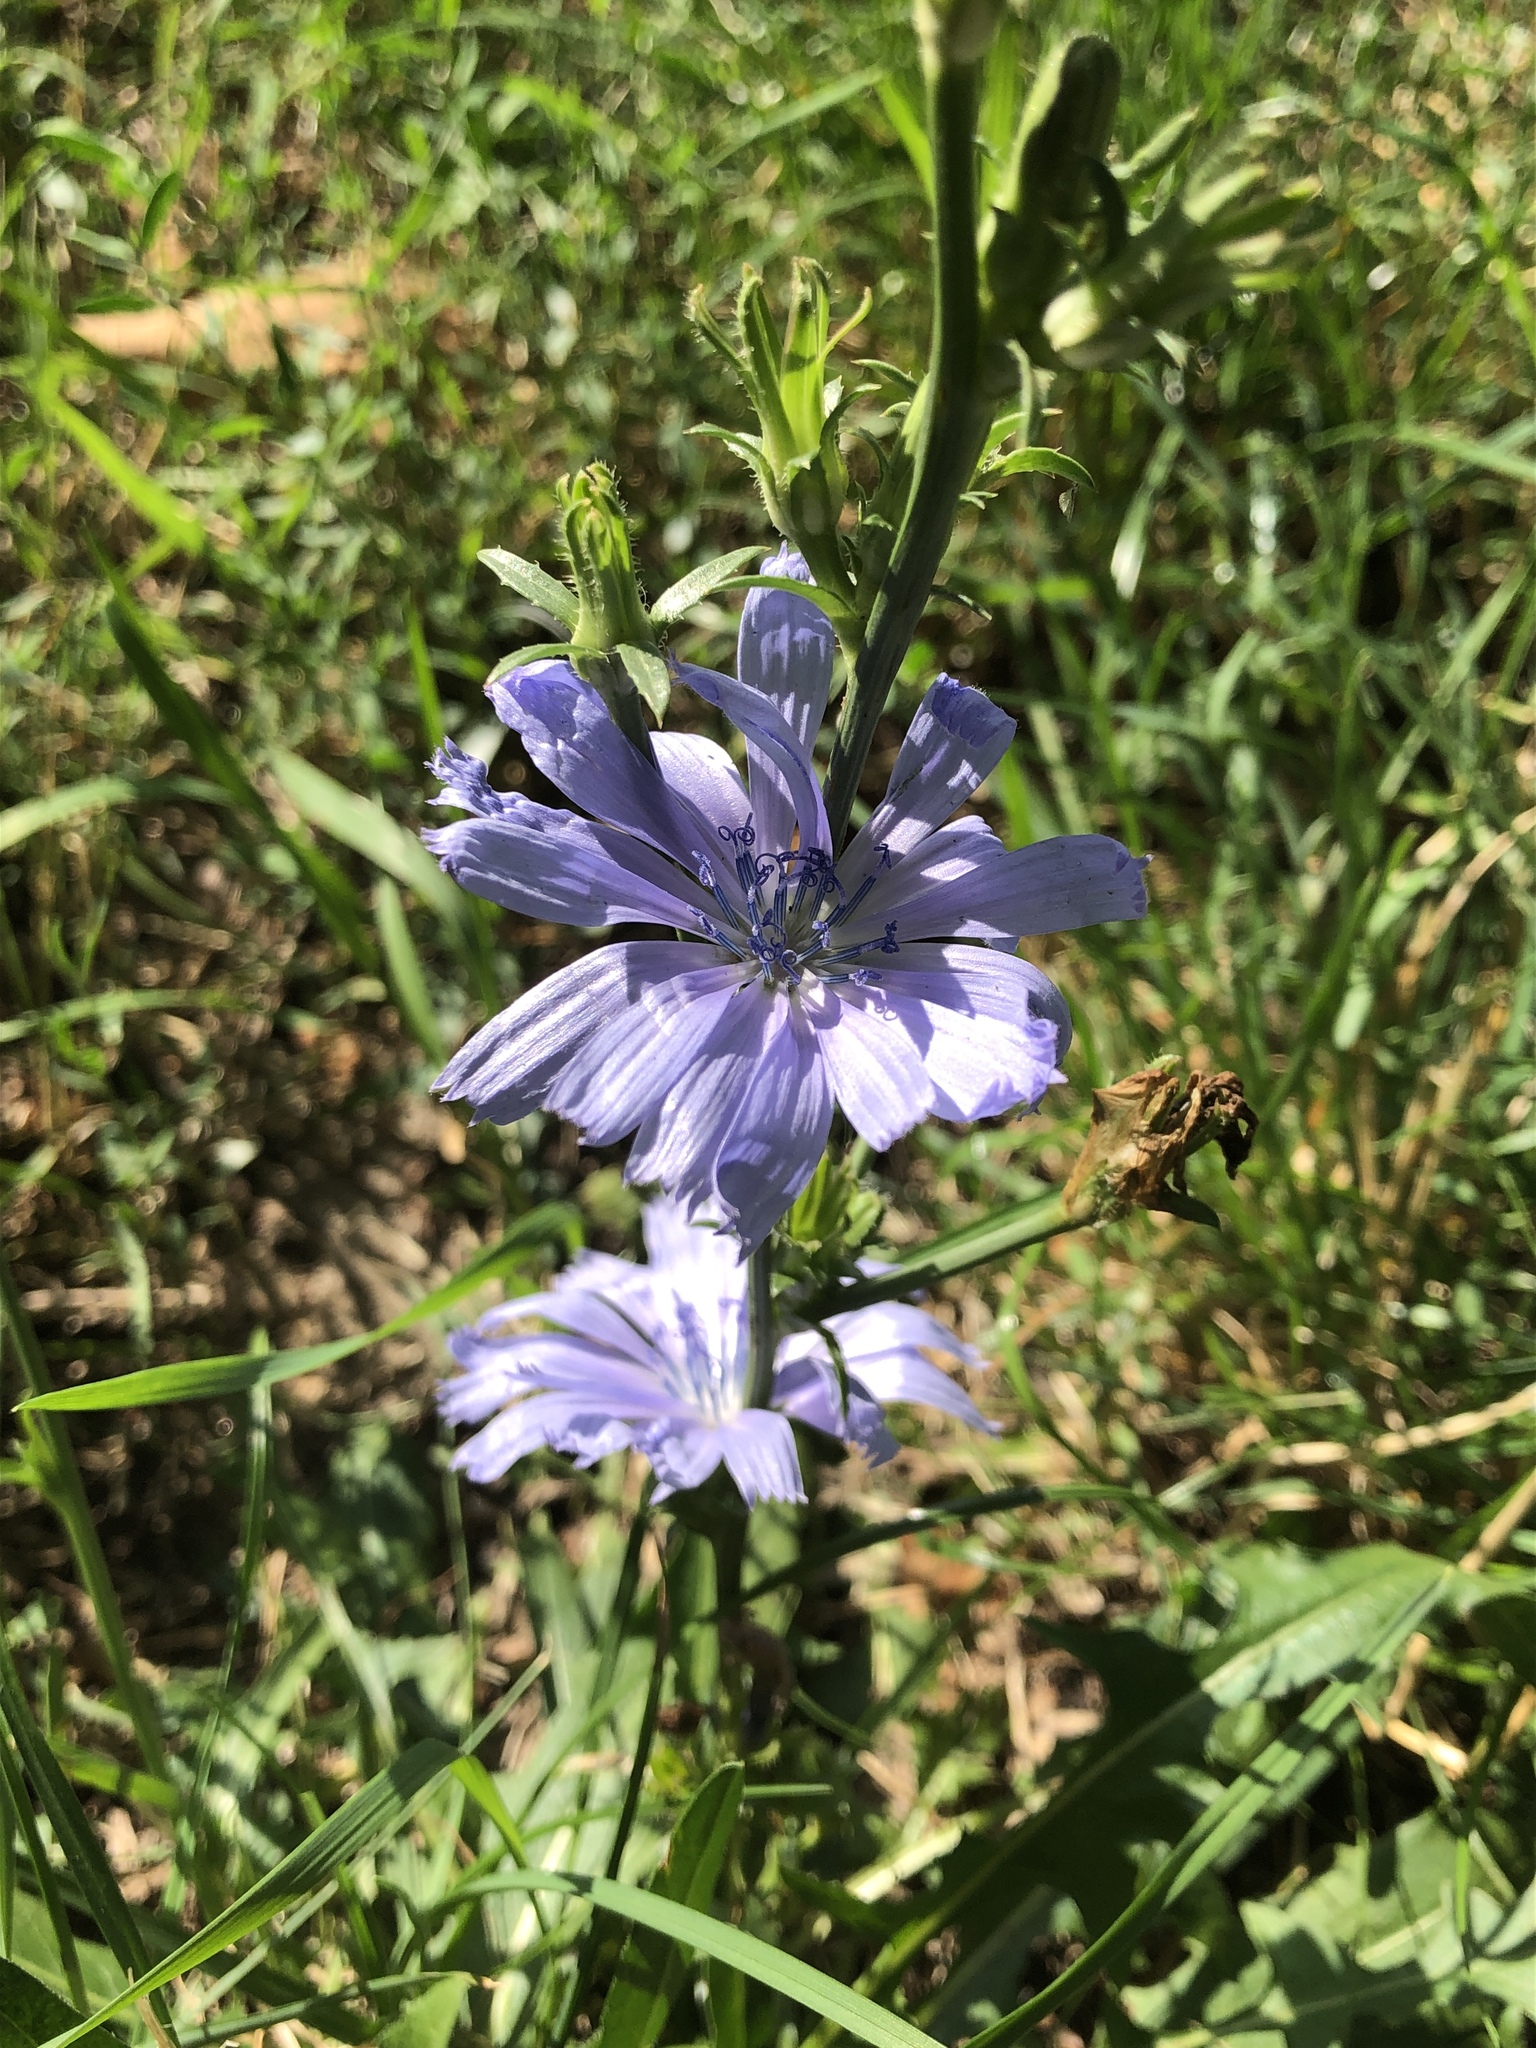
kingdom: Plantae
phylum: Tracheophyta
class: Magnoliopsida
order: Asterales
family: Asteraceae
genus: Cichorium
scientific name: Cichorium intybus
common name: Chicory
